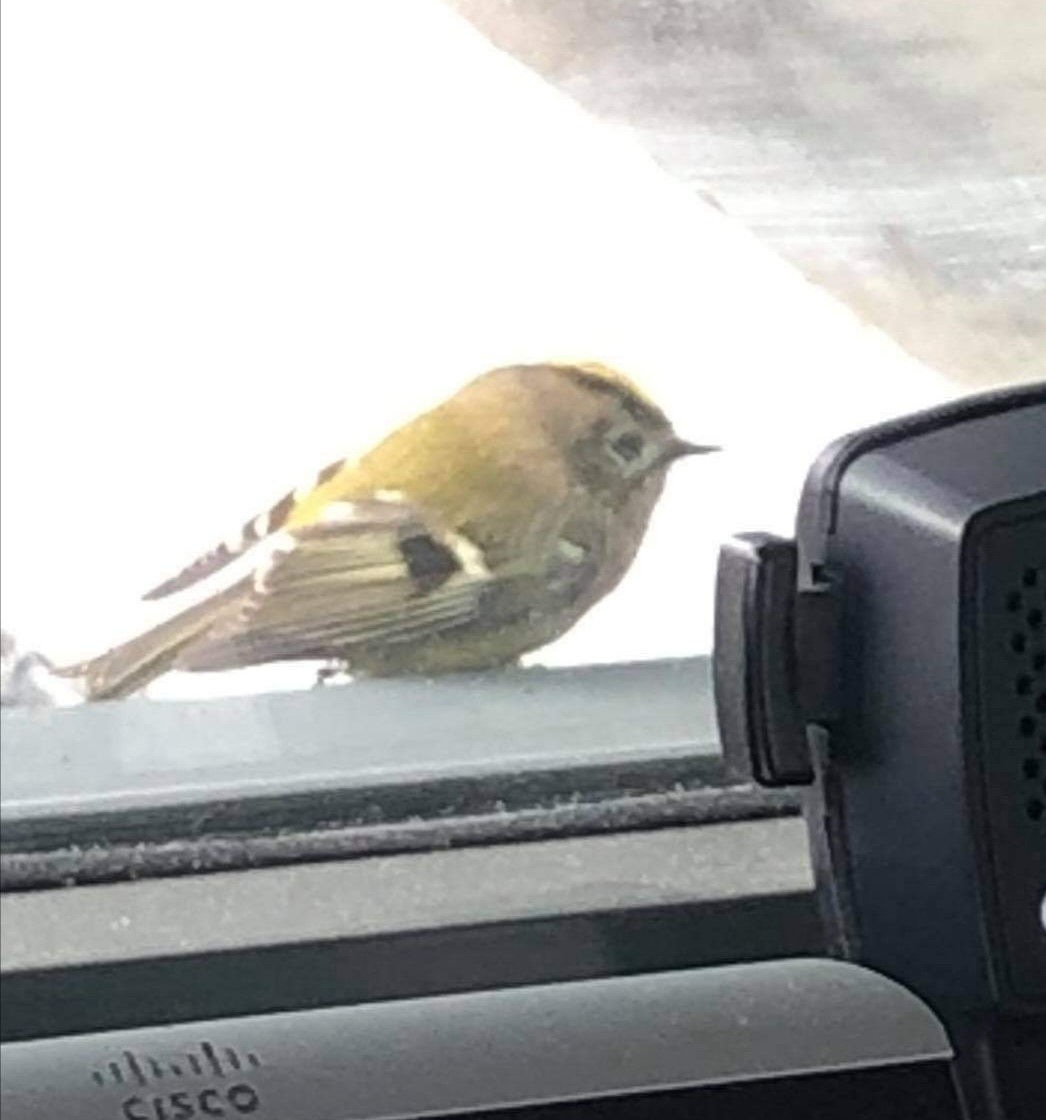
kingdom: Animalia
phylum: Chordata
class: Aves
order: Passeriformes
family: Regulidae
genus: Regulus
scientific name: Regulus regulus
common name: Goldcrest
